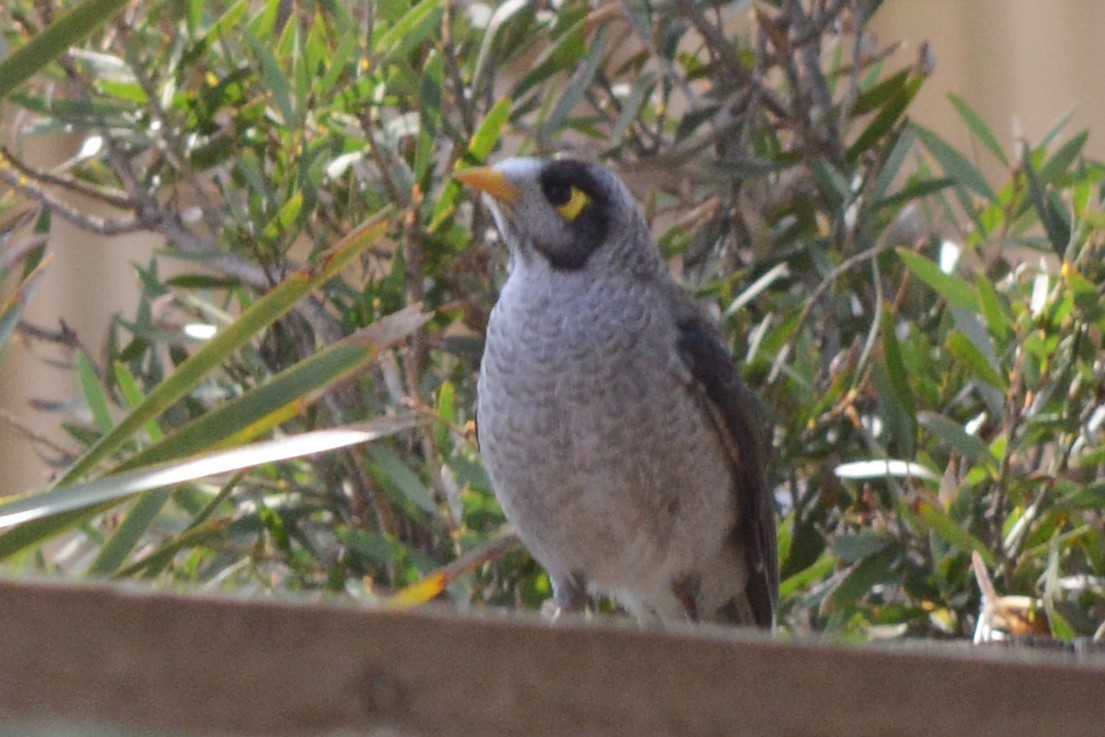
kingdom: Animalia
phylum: Chordata
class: Aves
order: Passeriformes
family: Meliphagidae
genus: Manorina
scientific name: Manorina melanocephala
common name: Noisy miner
